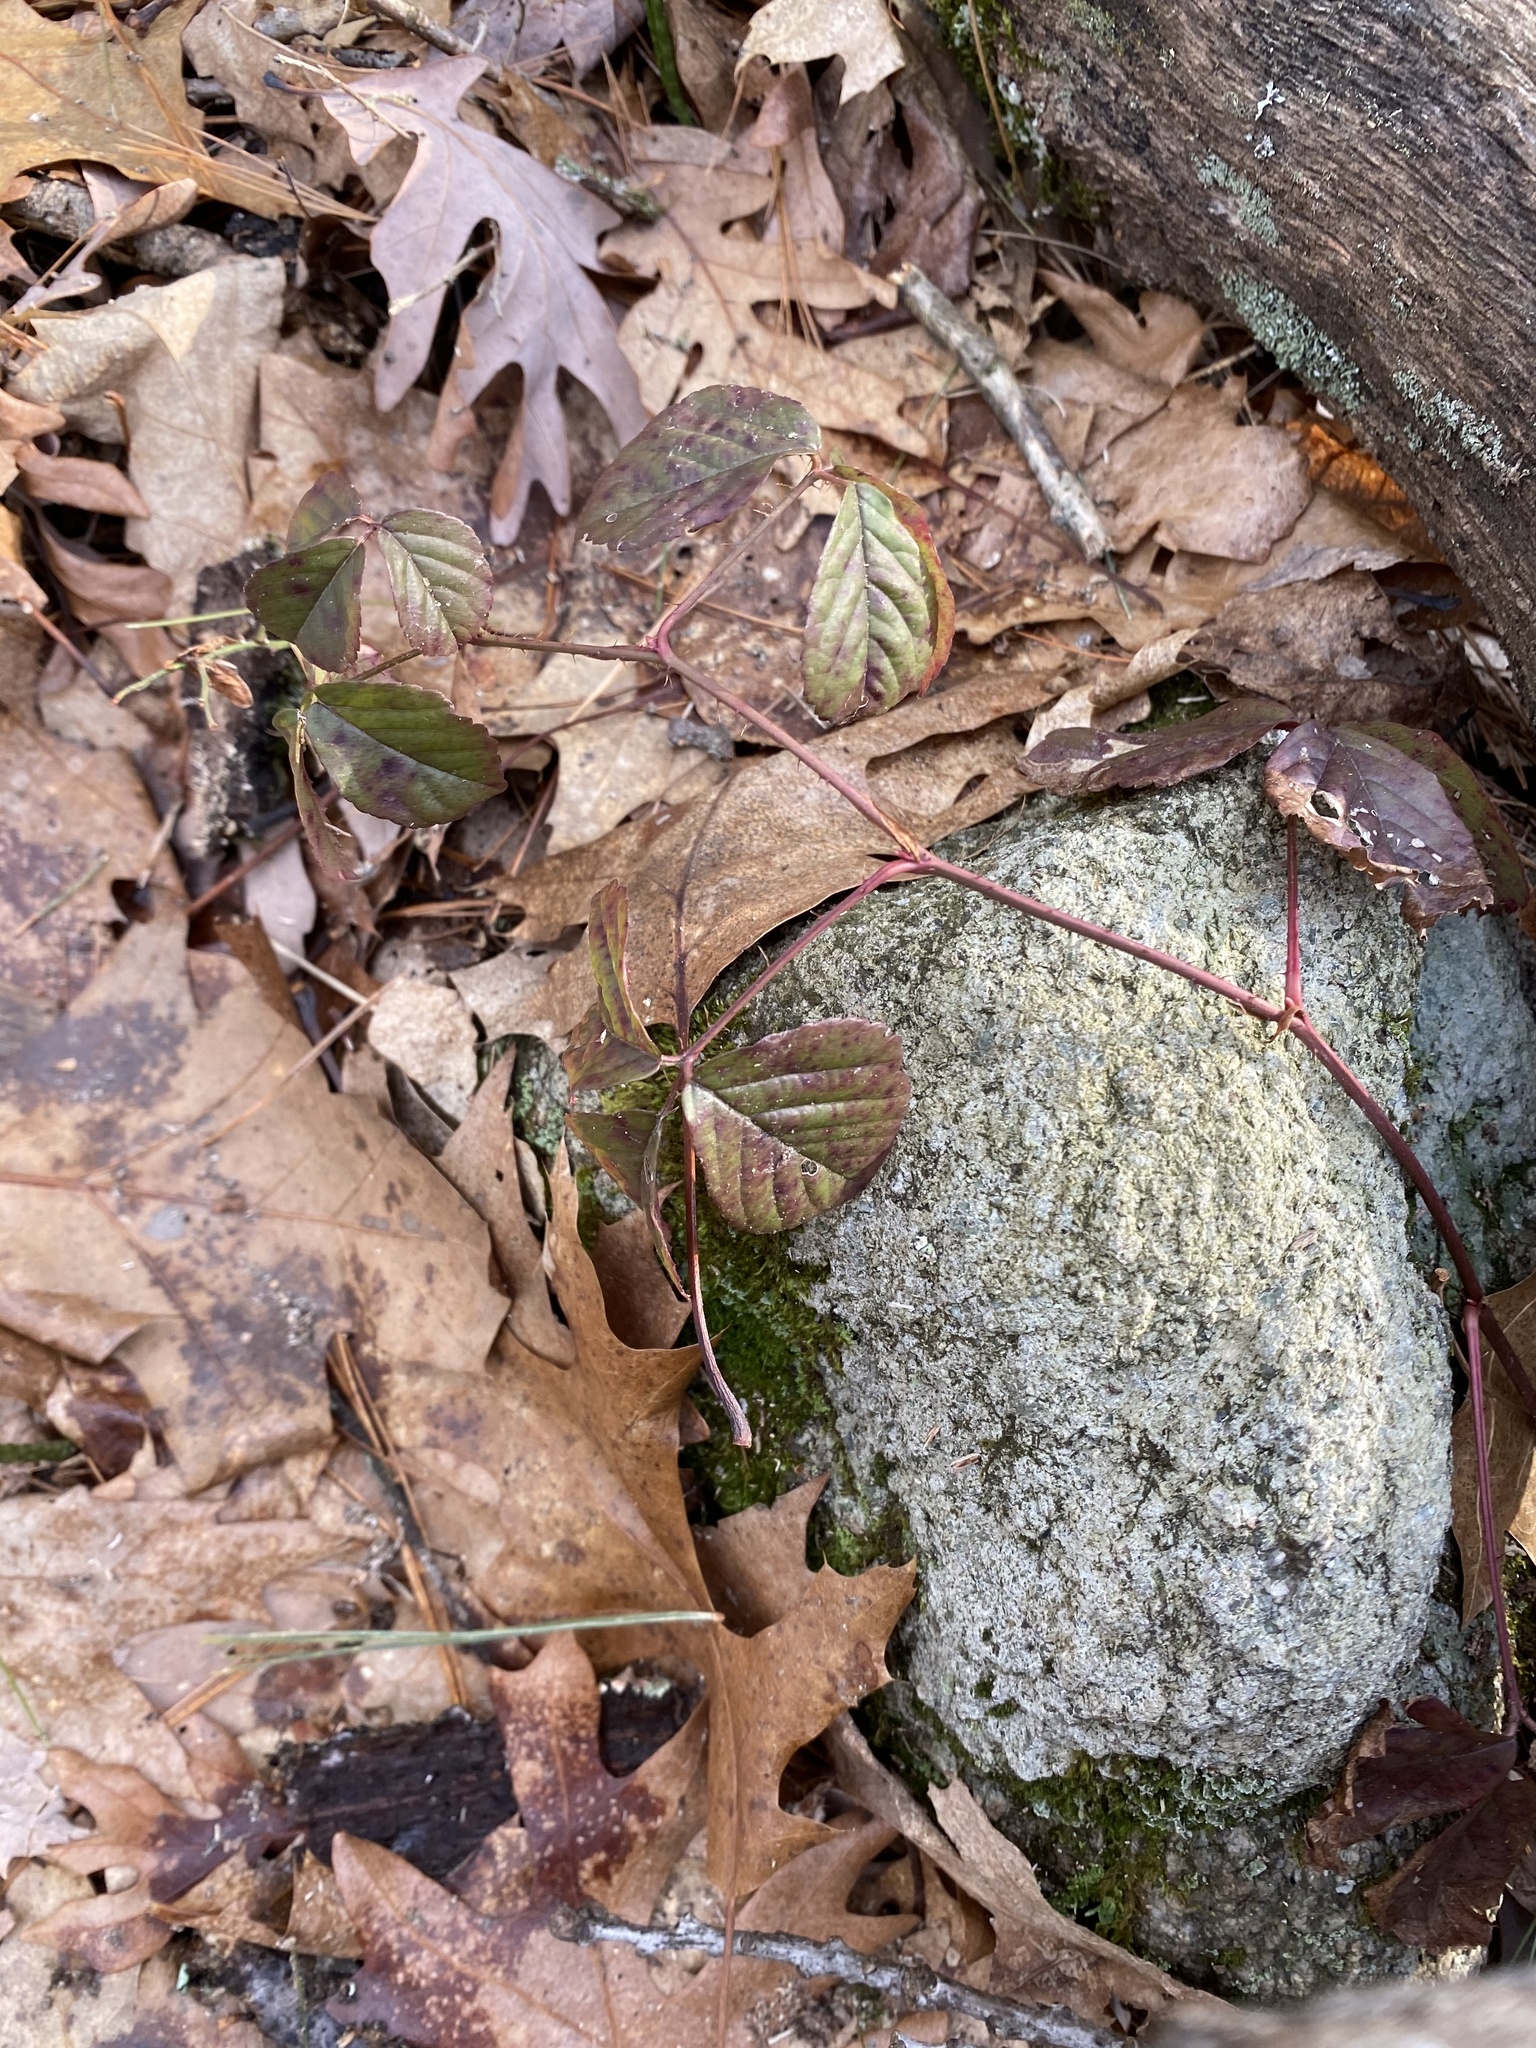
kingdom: Plantae
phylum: Tracheophyta
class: Magnoliopsida
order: Rosales
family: Rosaceae
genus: Rubus
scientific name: Rubus hispidus
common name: Running blackberry
